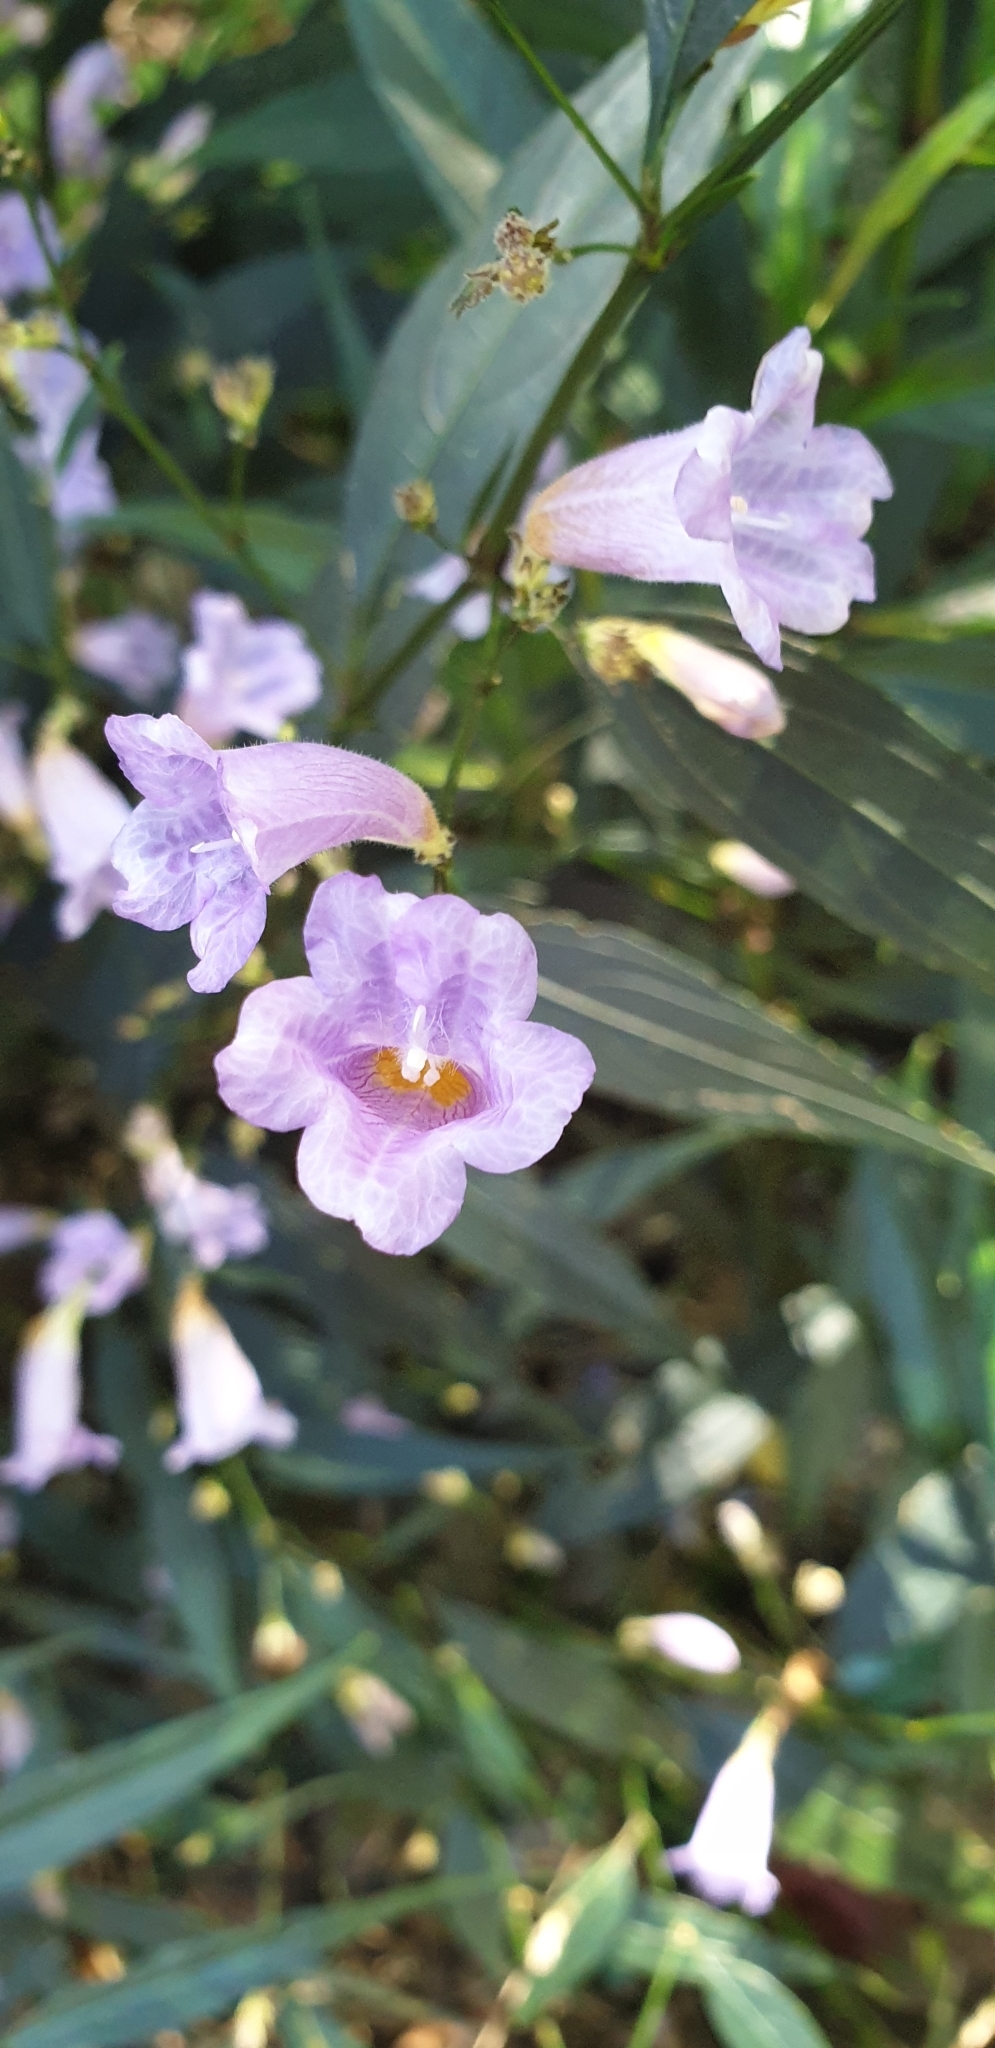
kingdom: Plantae
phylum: Tracheophyta
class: Magnoliopsida
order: Lamiales
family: Acanthaceae
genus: Strobilanthes
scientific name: Strobilanthes anisophylla
